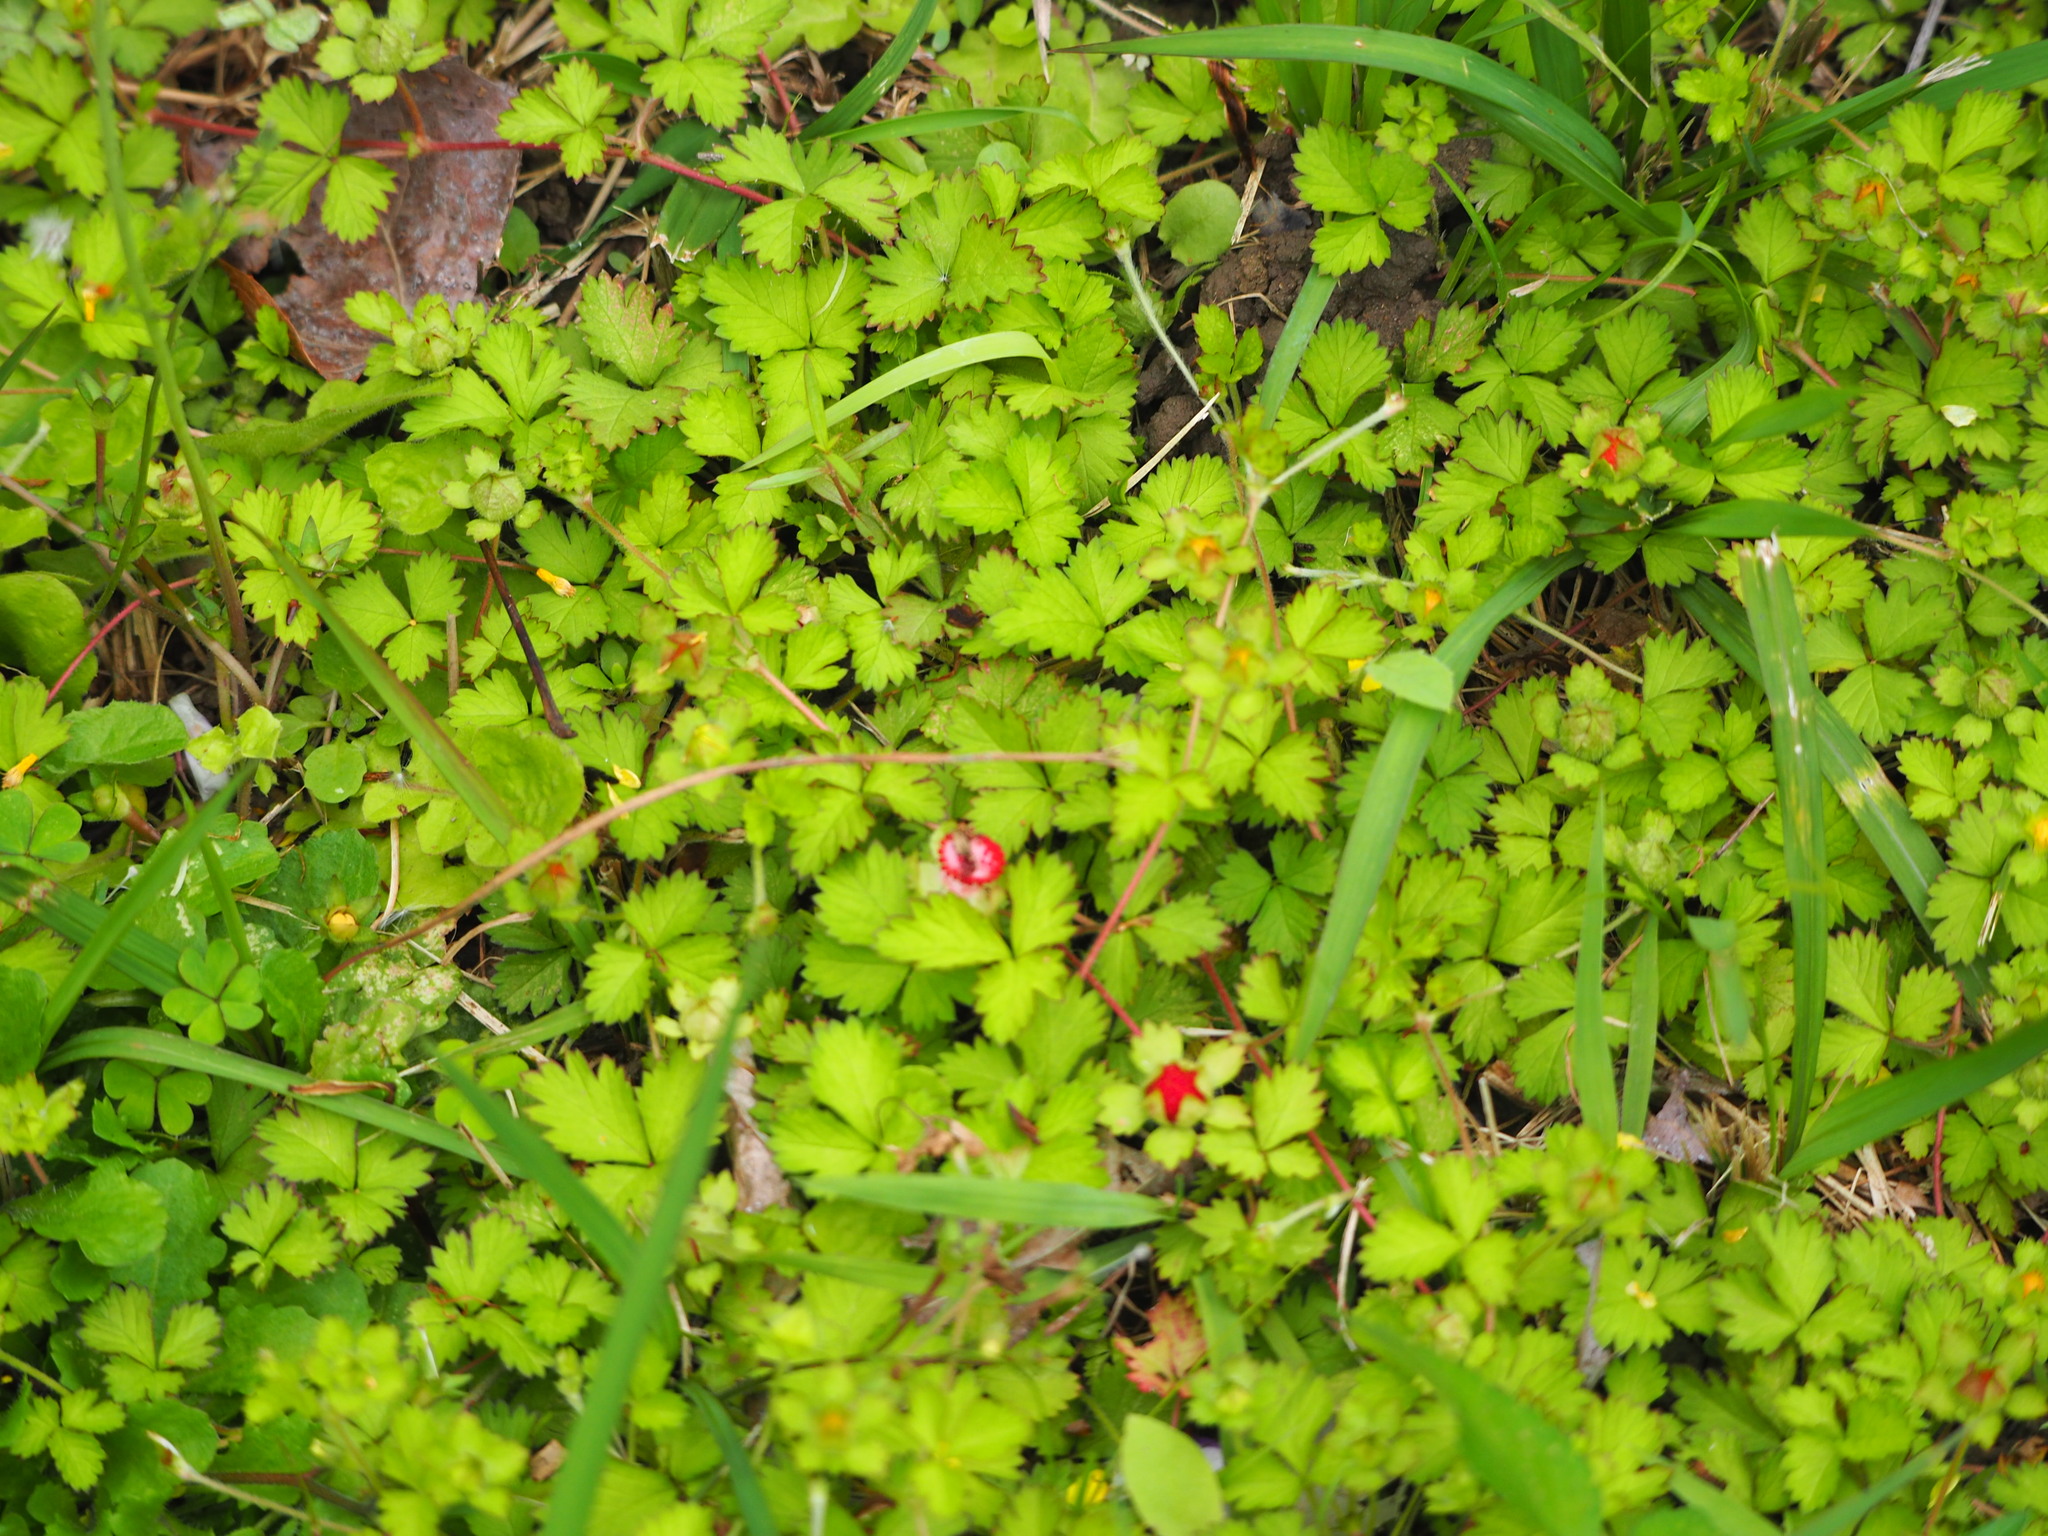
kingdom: Plantae
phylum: Tracheophyta
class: Magnoliopsida
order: Rosales
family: Rosaceae
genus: Potentilla
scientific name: Potentilla wallichiana
